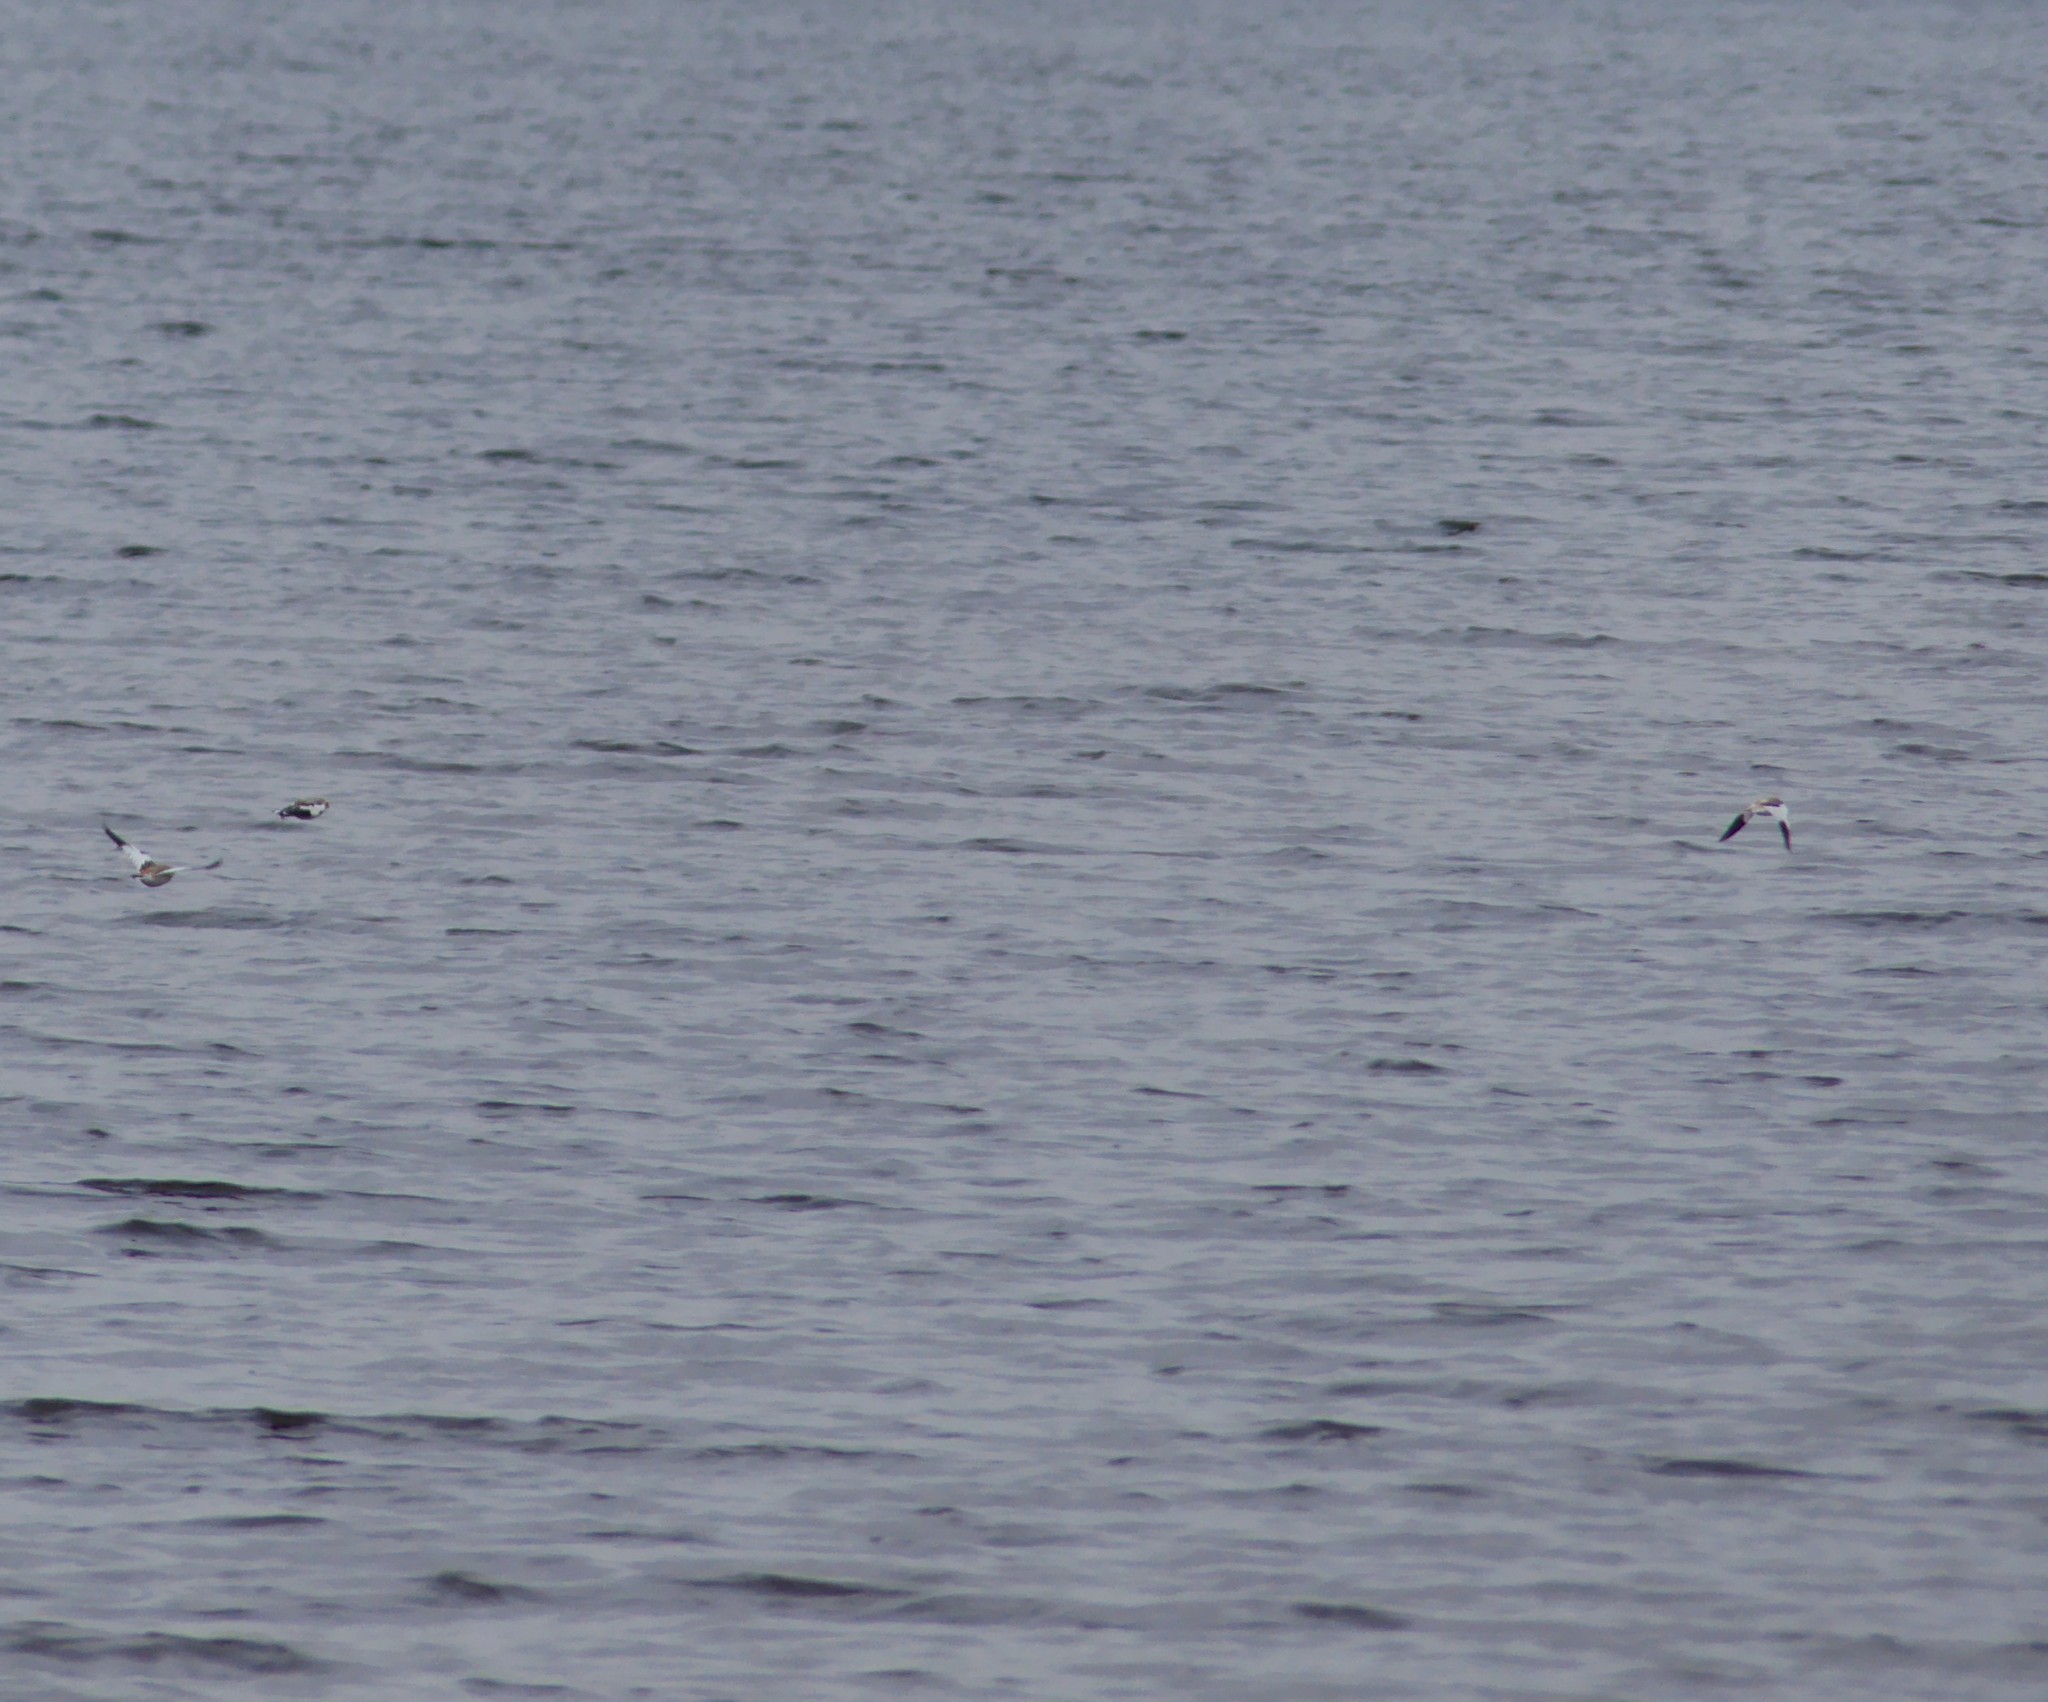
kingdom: Animalia
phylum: Chordata
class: Aves
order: Passeriformes
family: Calcariidae
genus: Plectrophenax
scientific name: Plectrophenax nivalis
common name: Snow bunting
